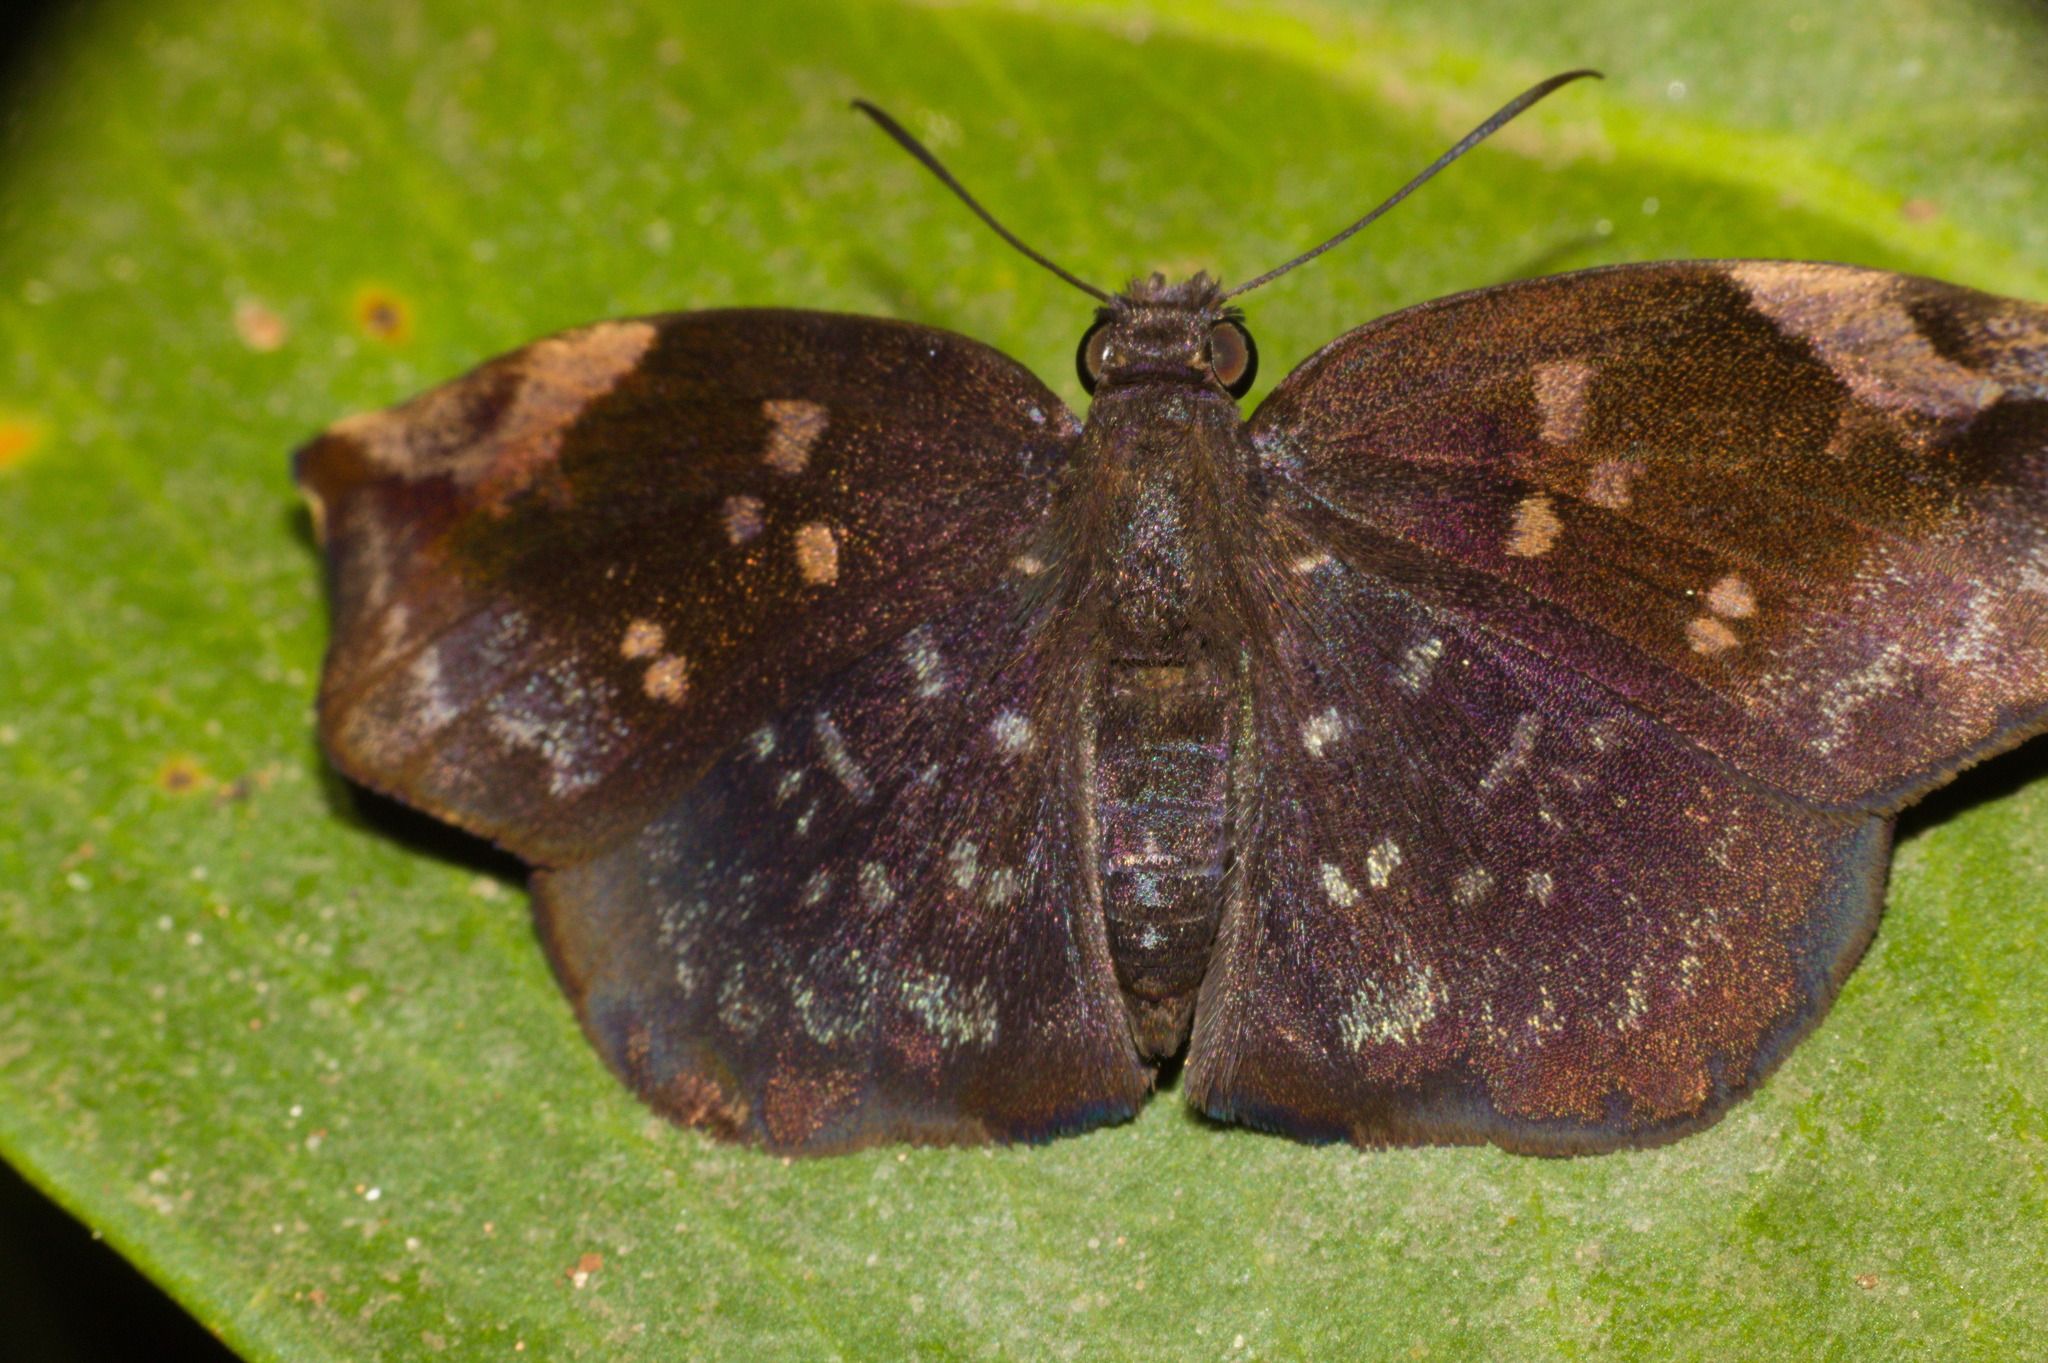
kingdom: Animalia
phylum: Arthropoda
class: Insecta
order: Lepidoptera
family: Hesperiidae
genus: Achlyodes
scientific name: Achlyodes thraso
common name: Sickle-winged skipper
